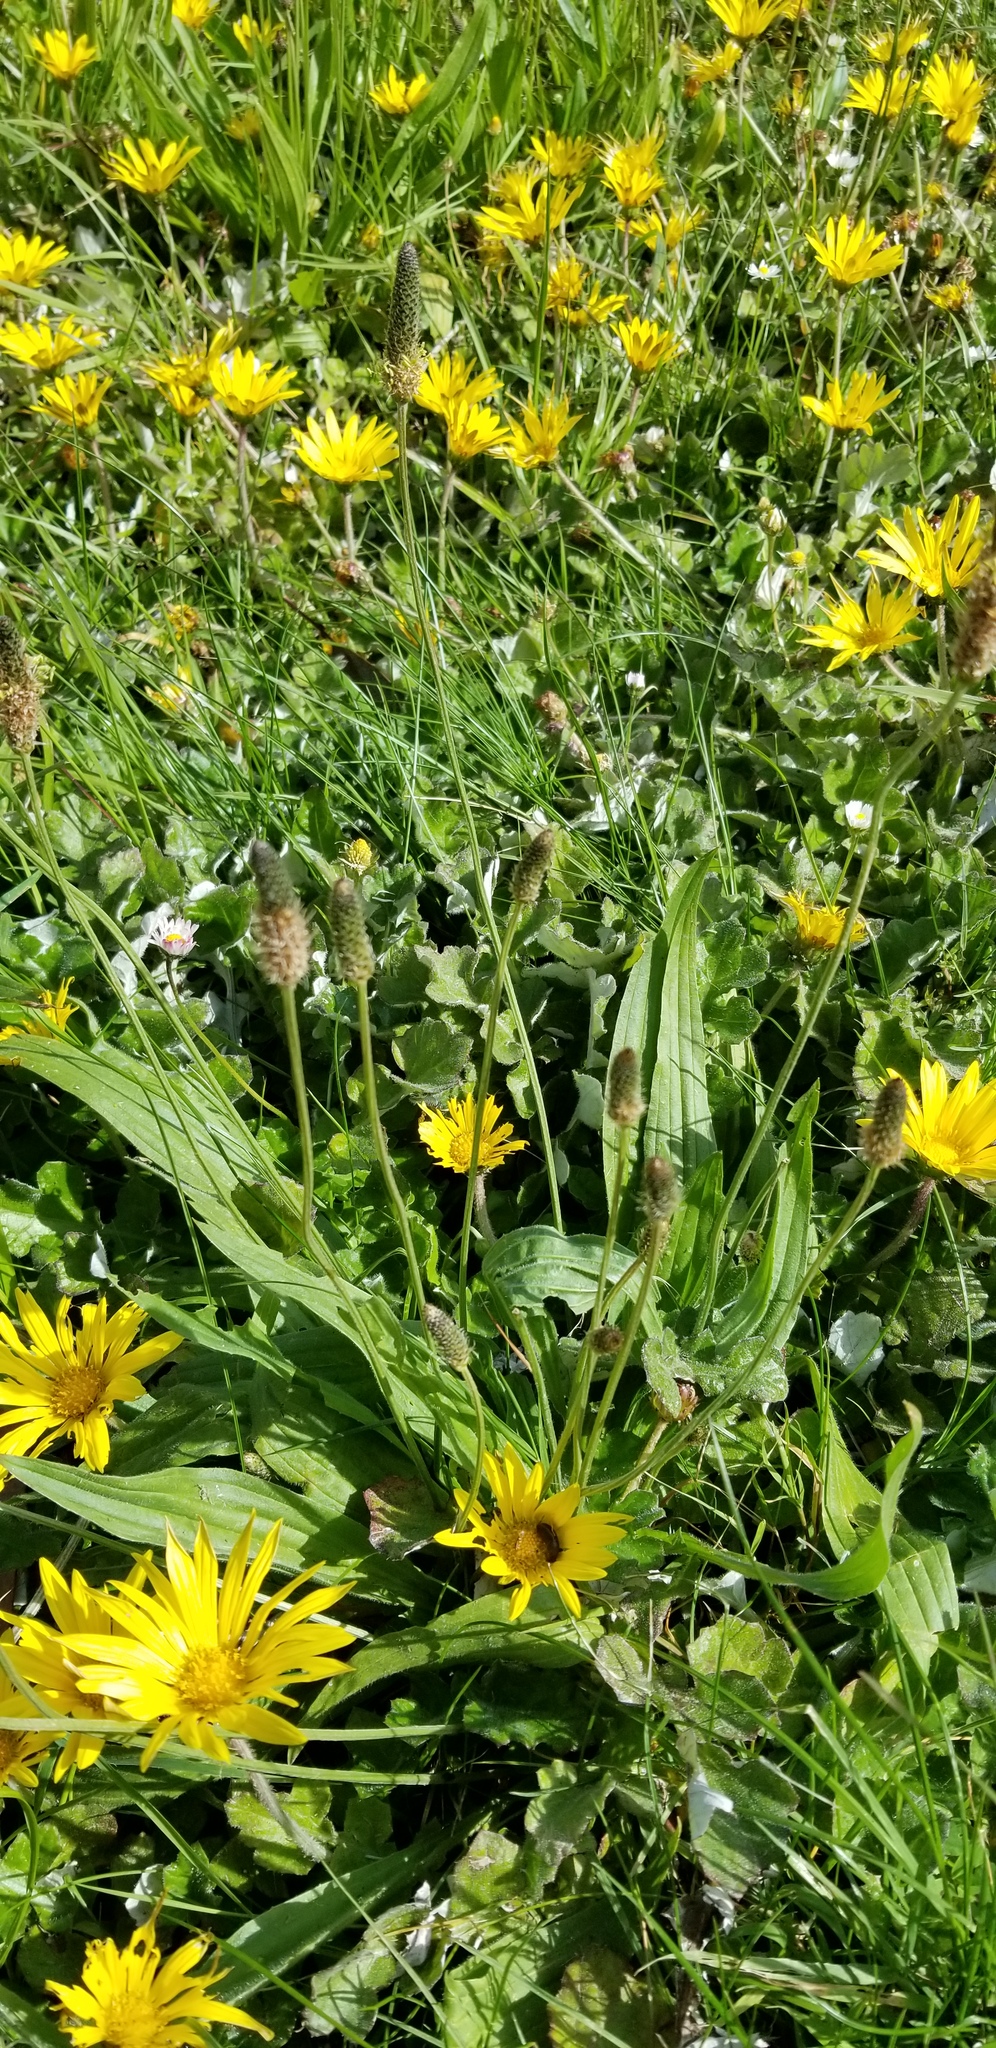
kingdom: Plantae
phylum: Tracheophyta
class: Magnoliopsida
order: Lamiales
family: Plantaginaceae
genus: Plantago
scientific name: Plantago lanceolata
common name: Ribwort plantain
